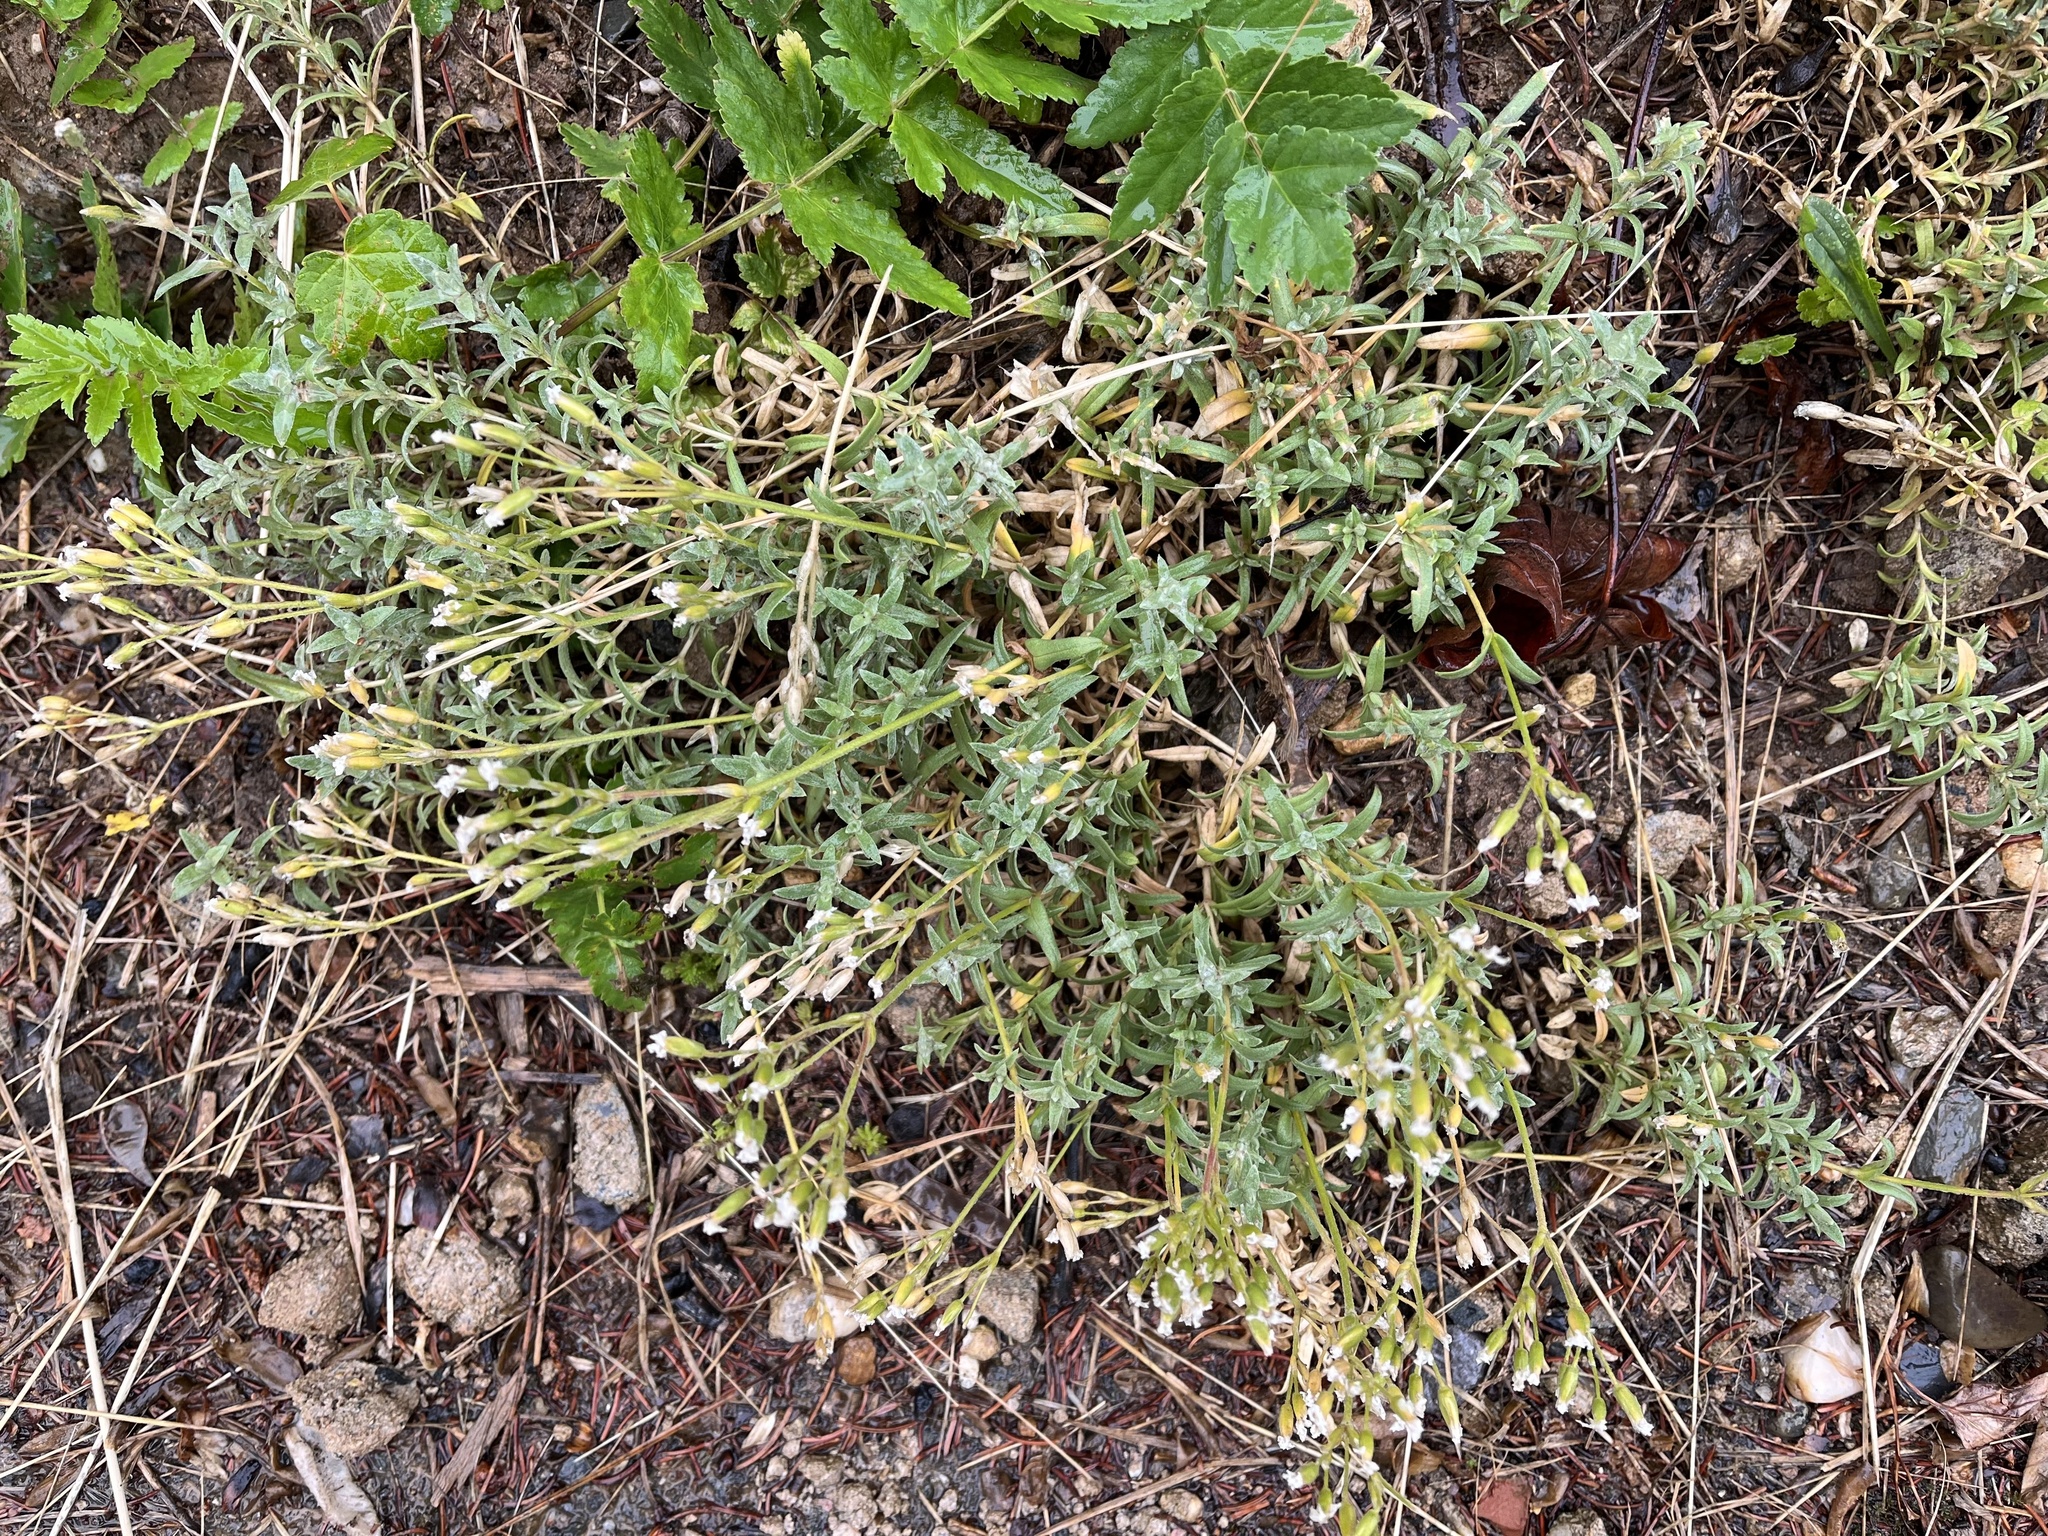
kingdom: Plantae
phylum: Tracheophyta
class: Magnoliopsida
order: Caryophyllales
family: Caryophyllaceae
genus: Cerastium
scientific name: Cerastium tomentosum
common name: Snow-in-summer
